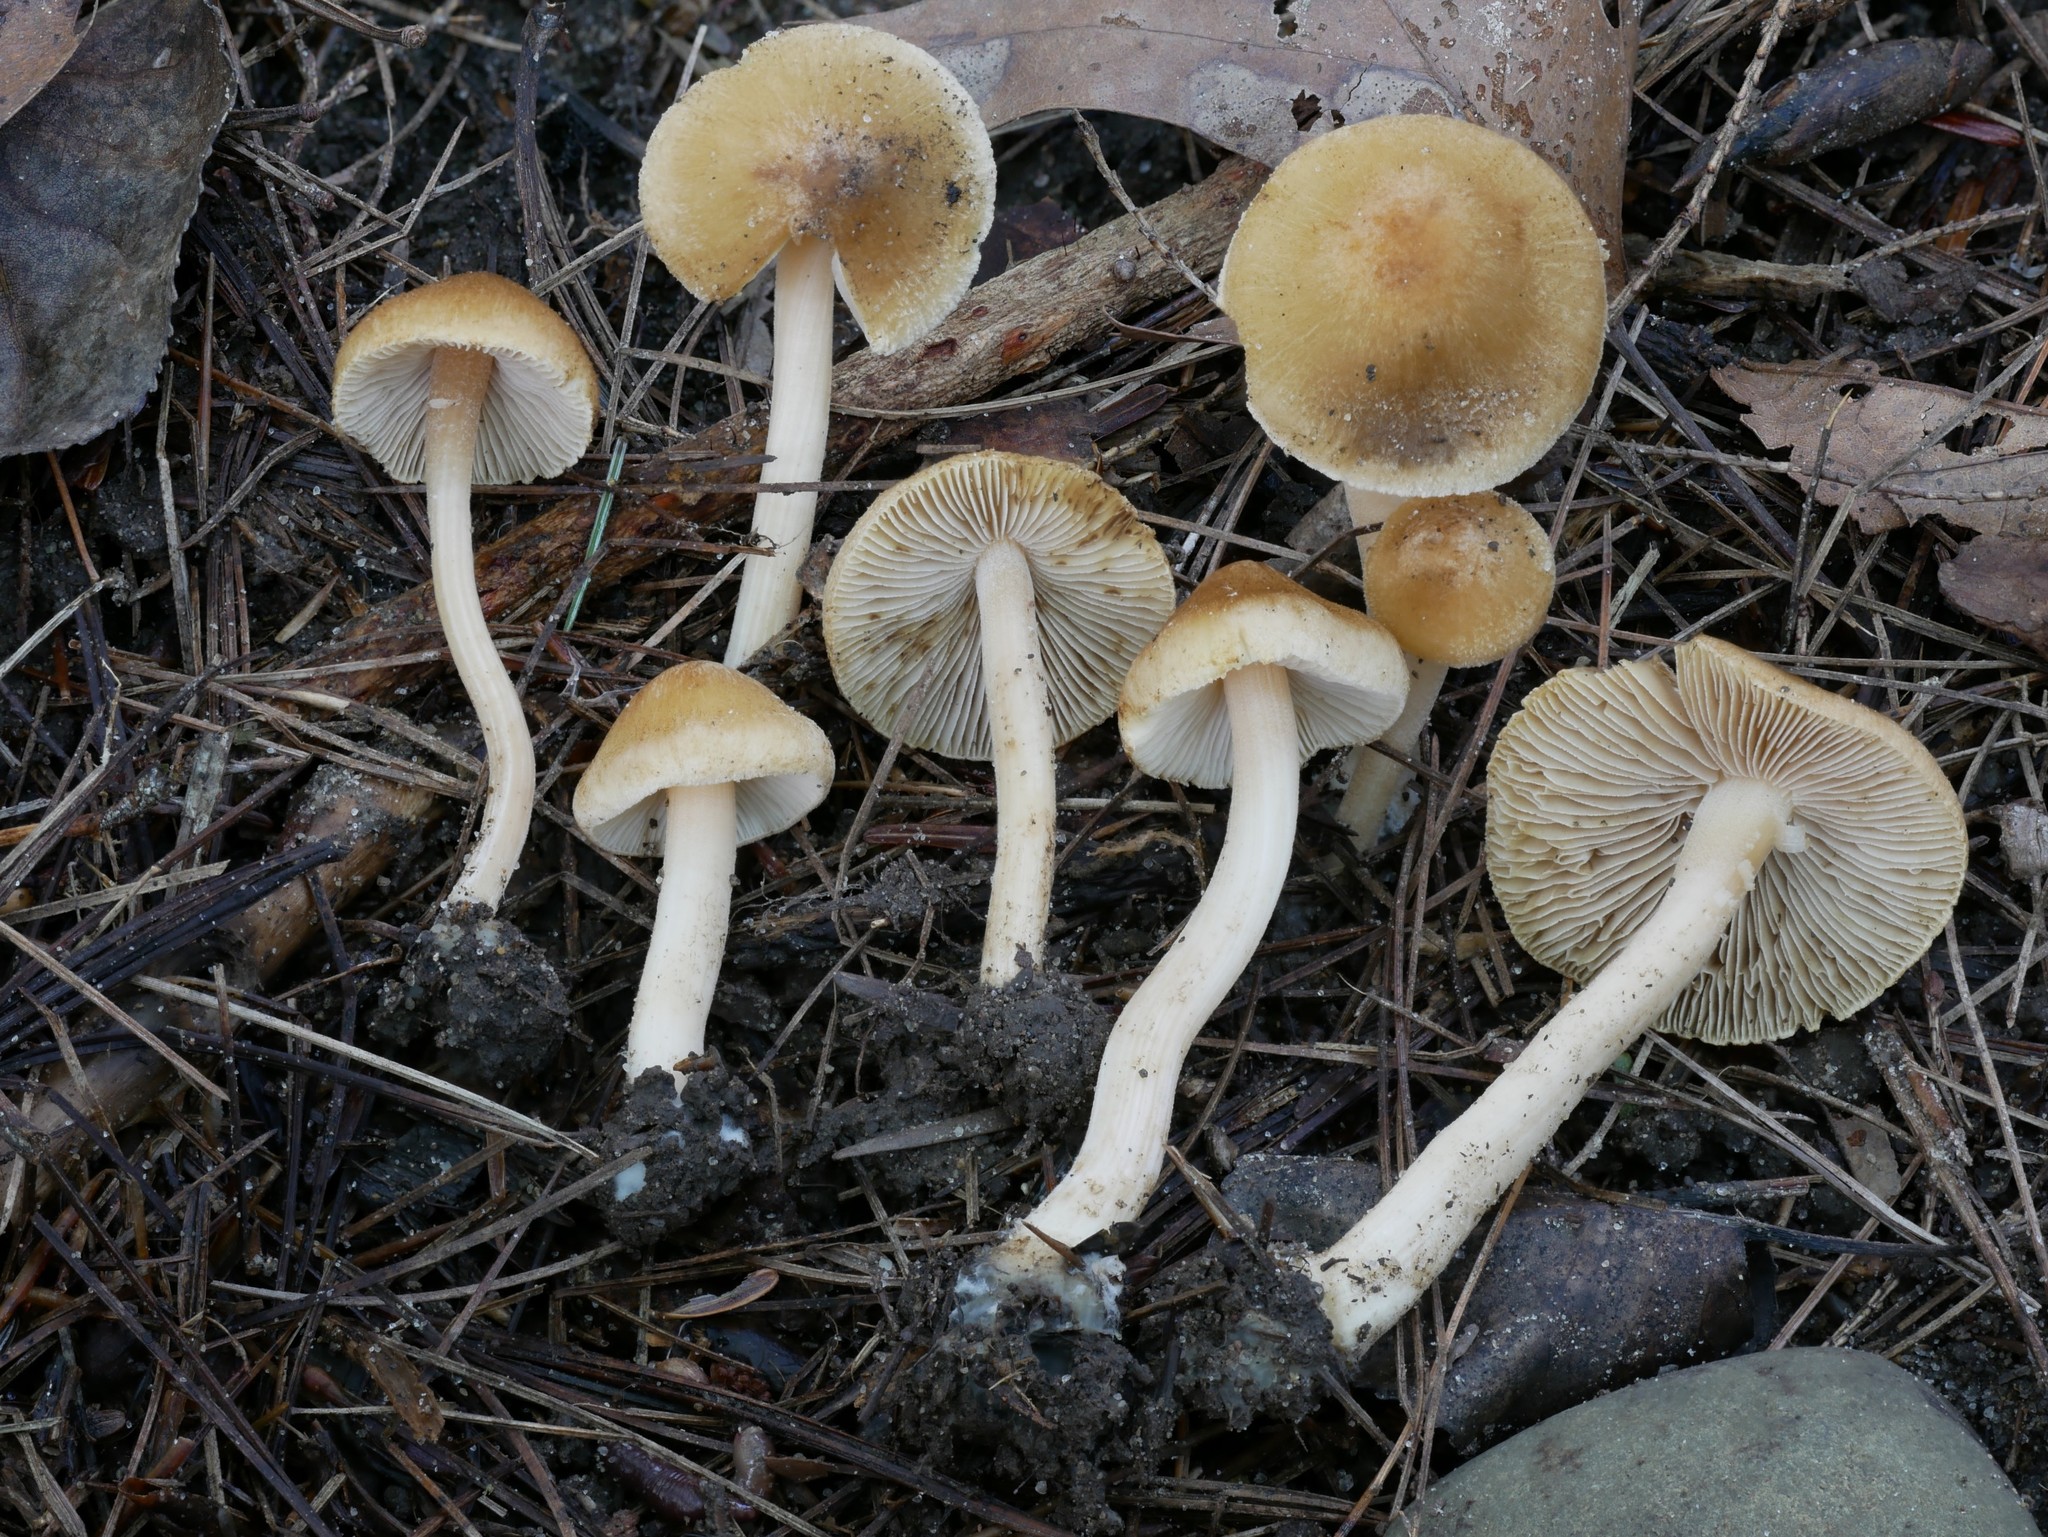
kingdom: Fungi
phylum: Basidiomycota
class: Agaricomycetes
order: Agaricales
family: Inocybaceae
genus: Inocybe
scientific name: Inocybe muricellata
